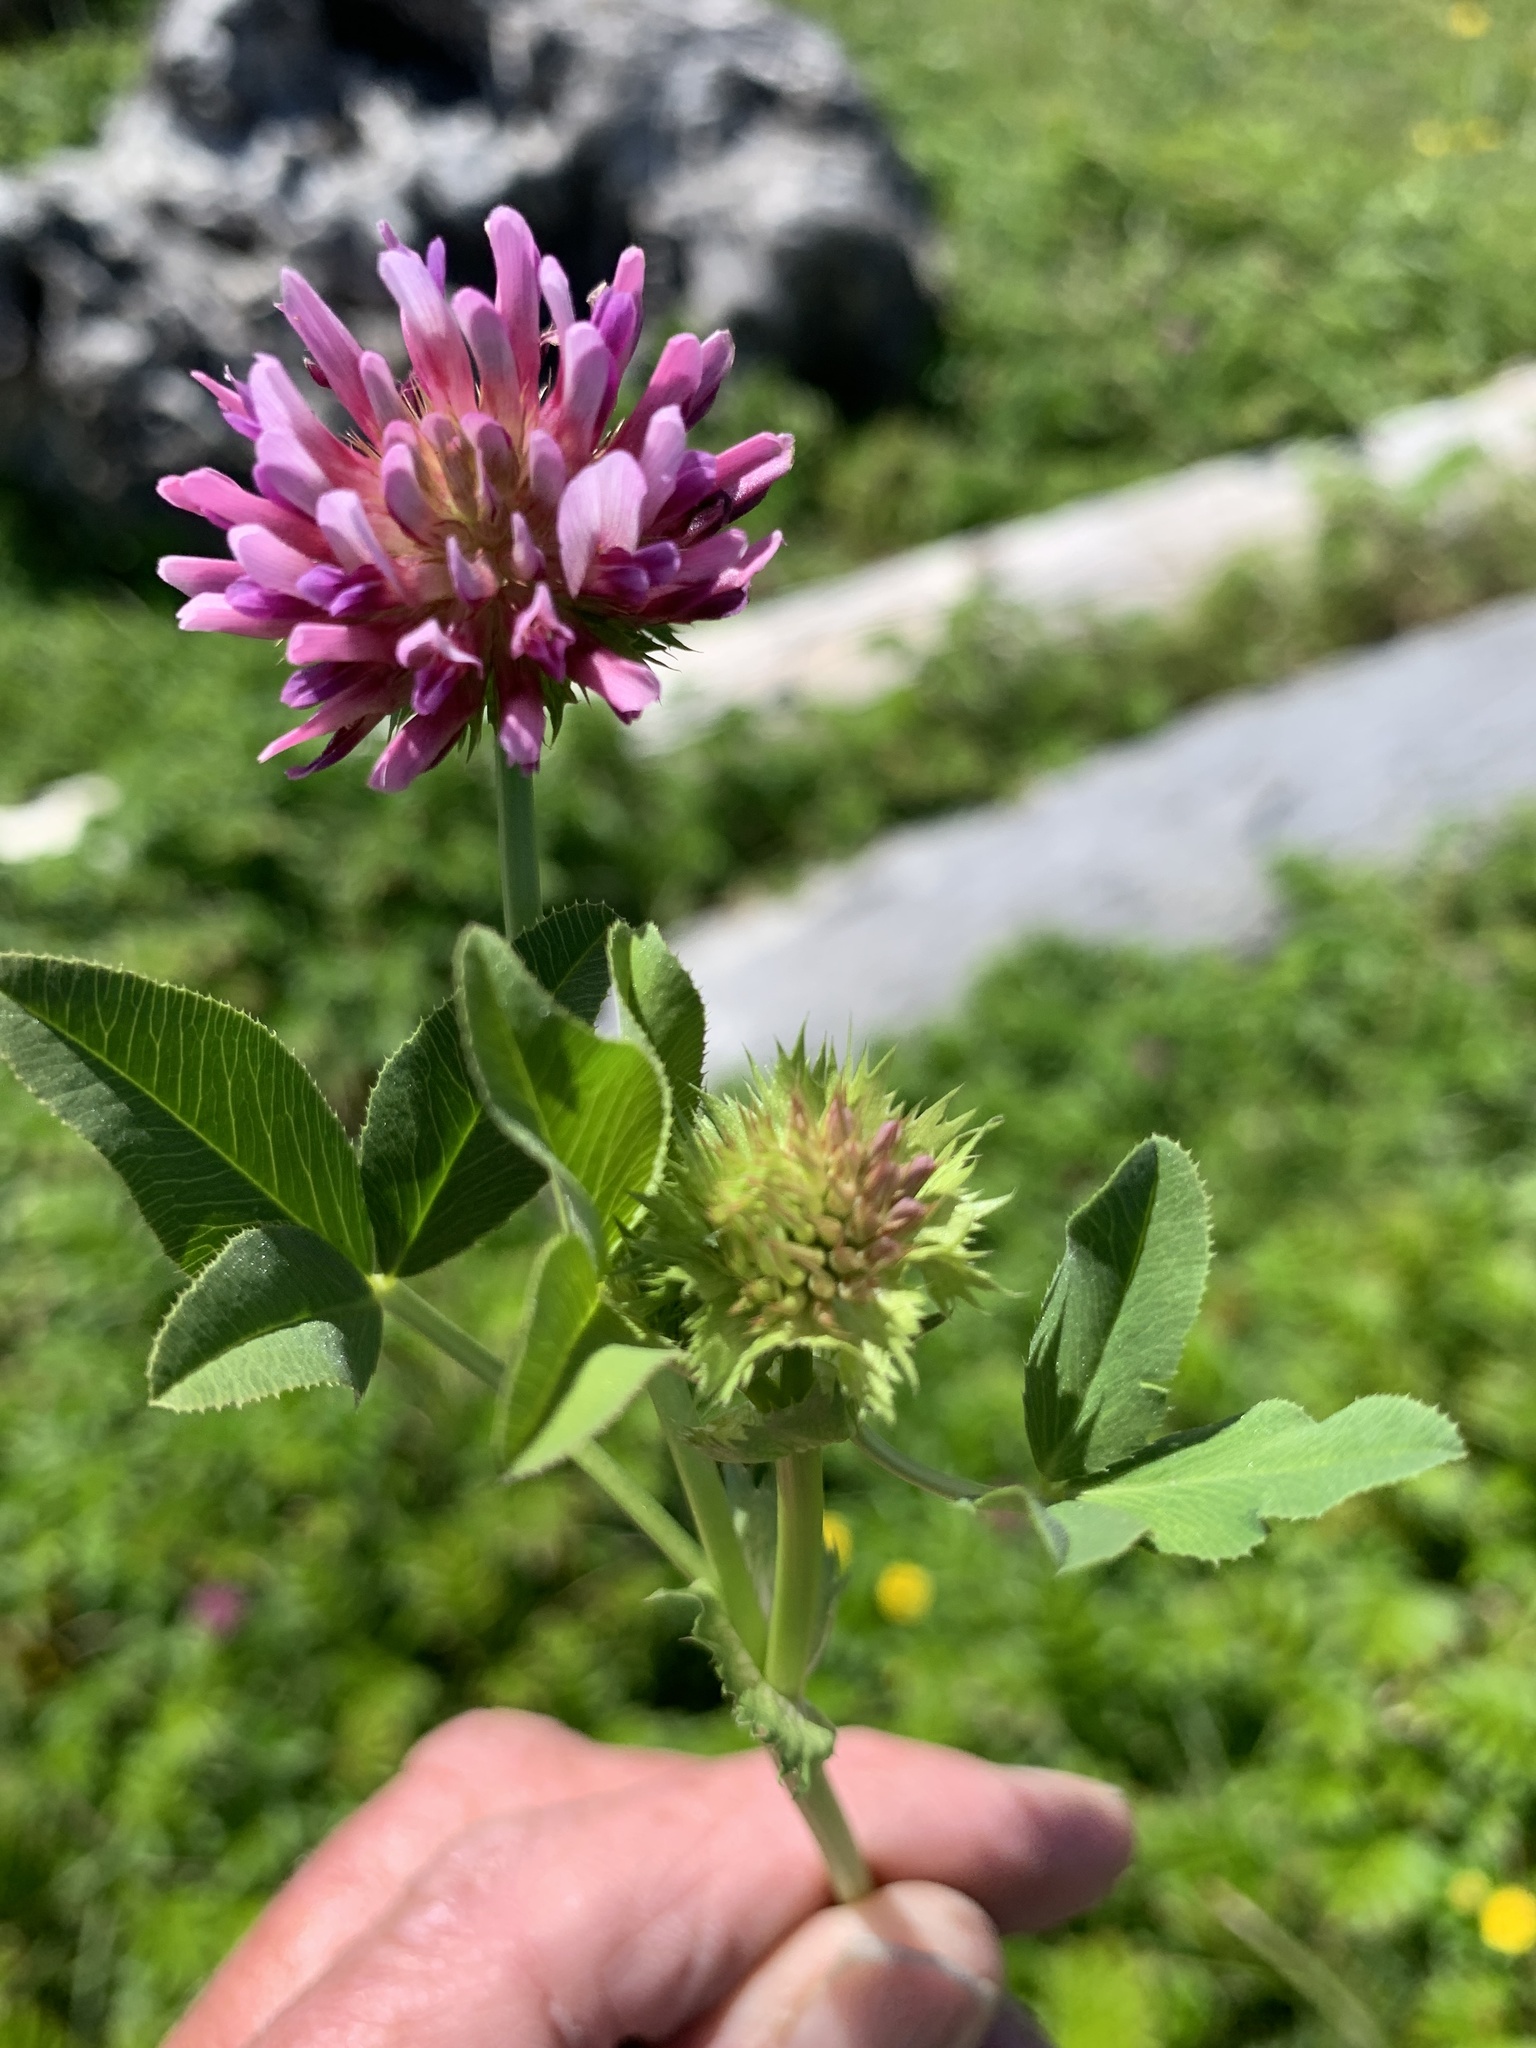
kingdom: Plantae
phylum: Tracheophyta
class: Magnoliopsida
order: Fabales
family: Fabaceae
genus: Trifolium
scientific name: Trifolium wormskioldii
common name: Springbank clover
